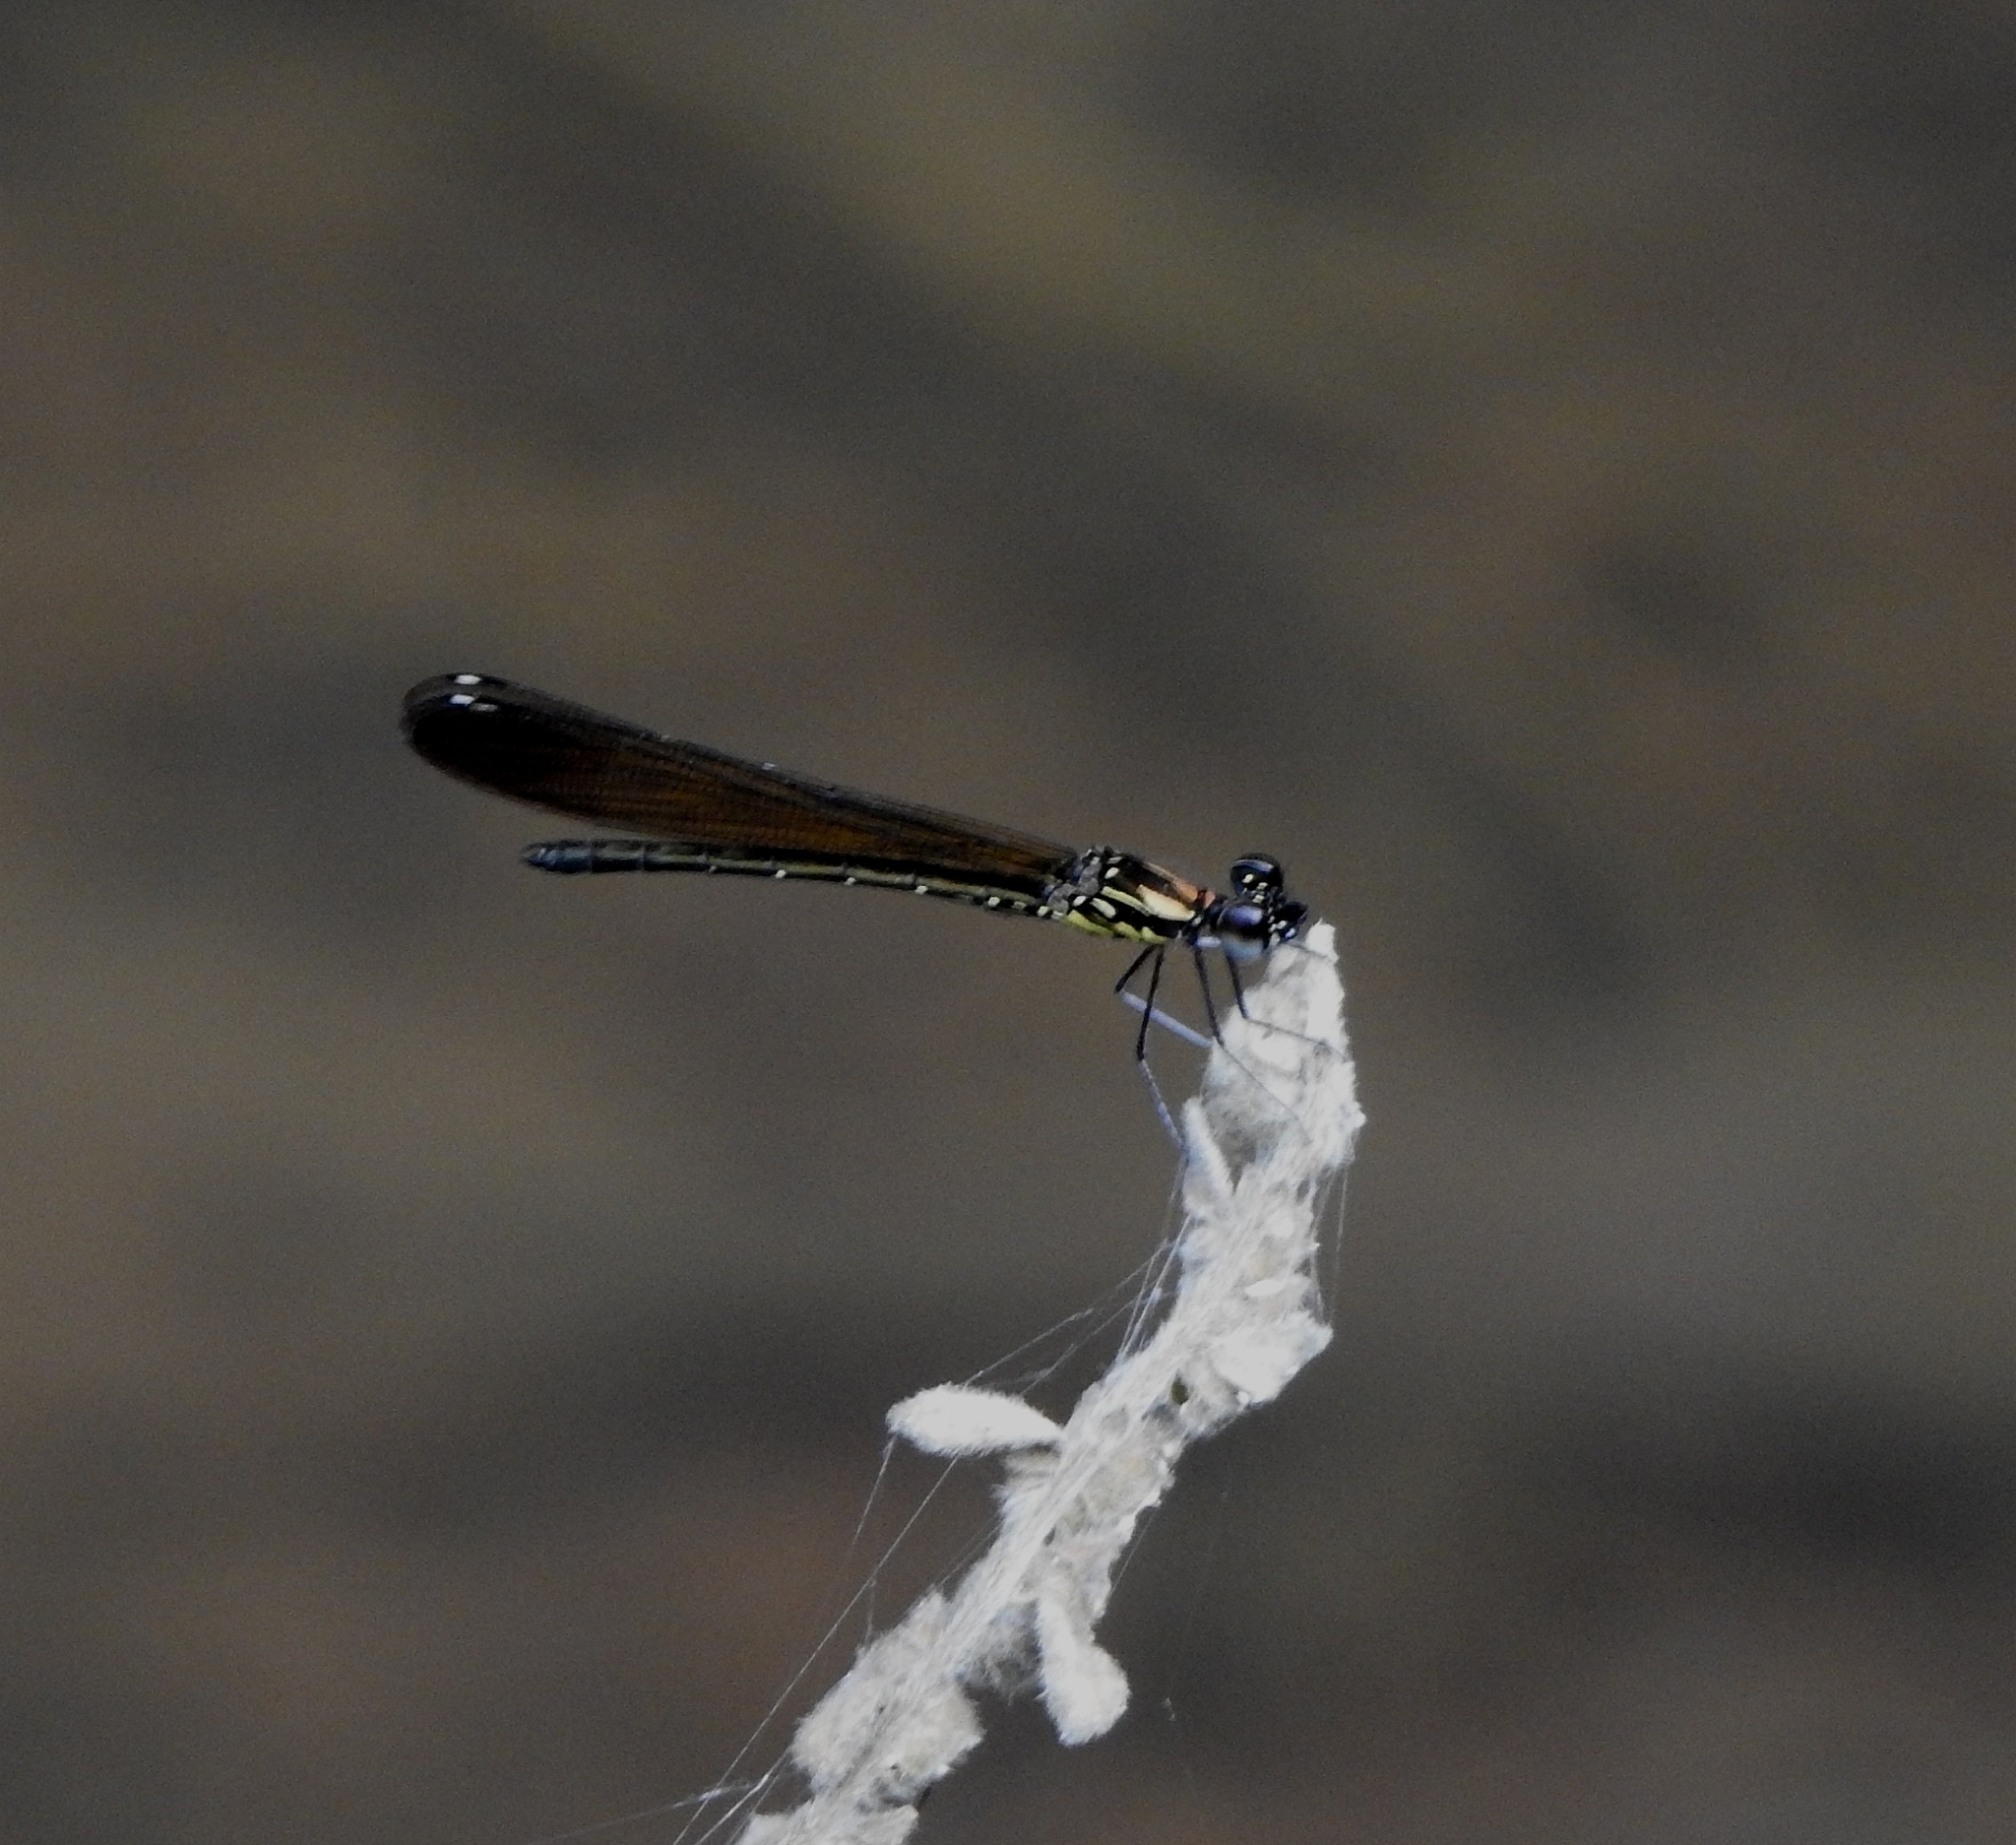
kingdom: Animalia
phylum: Arthropoda
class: Insecta
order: Odonata
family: Chlorocyphidae
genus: Heliocypha
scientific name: Heliocypha bisignata
